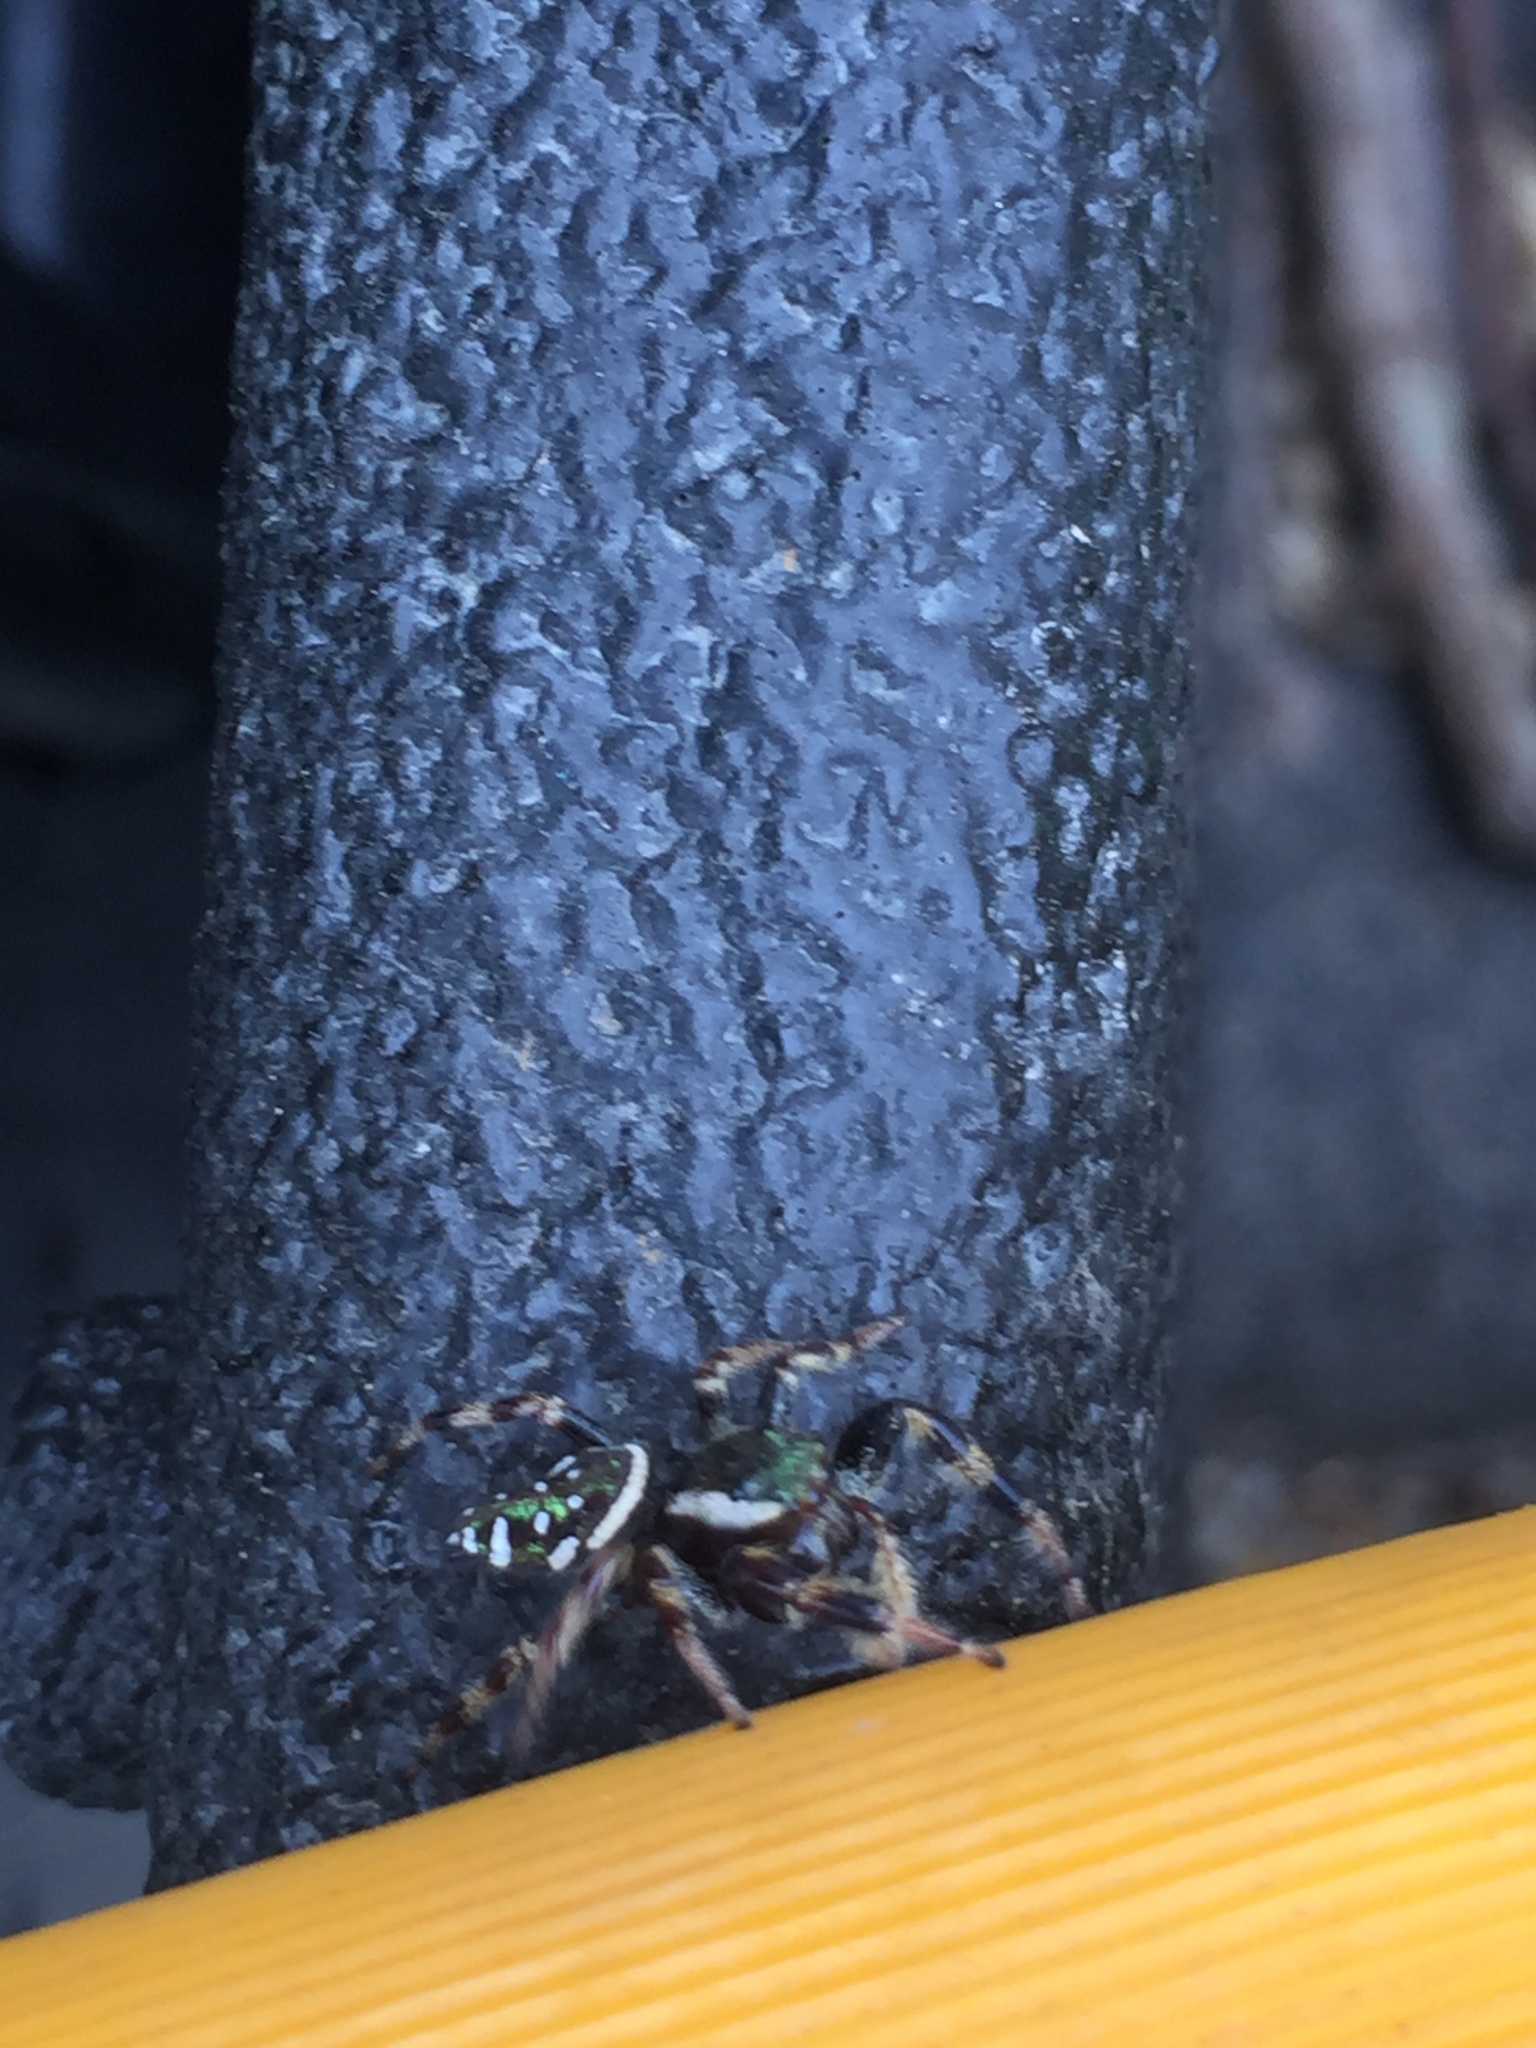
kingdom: Animalia
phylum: Arthropoda
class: Arachnida
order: Araneae
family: Salticidae
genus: Paraphidippus
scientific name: Paraphidippus aurantius
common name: Jumping spiders
